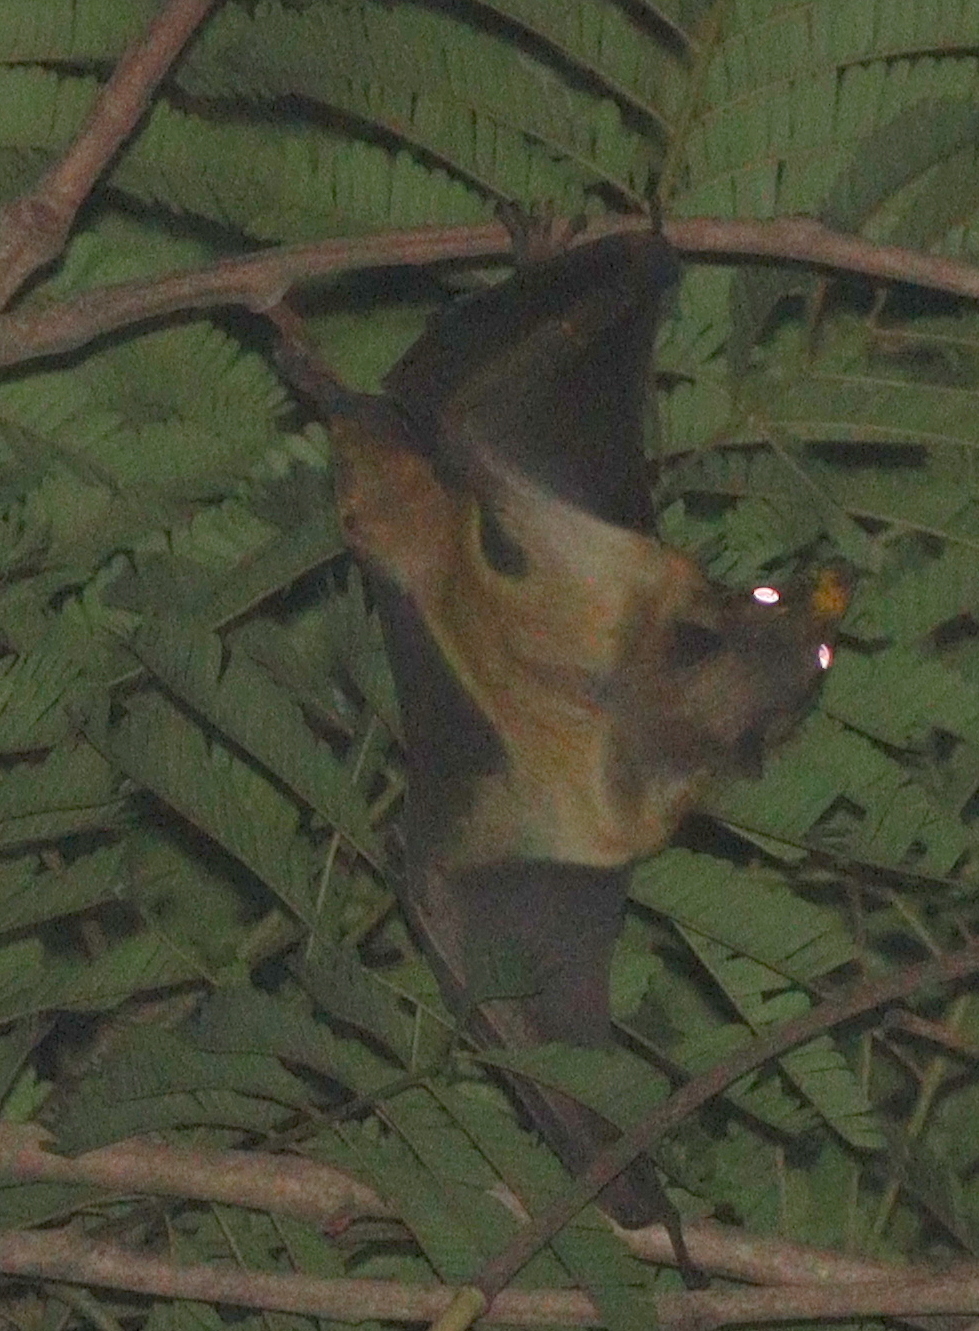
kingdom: Animalia
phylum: Chordata
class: Mammalia
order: Chiroptera
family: Pteropodidae
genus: Eidolon
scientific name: Eidolon helvum
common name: Straw-colored fruit bat
